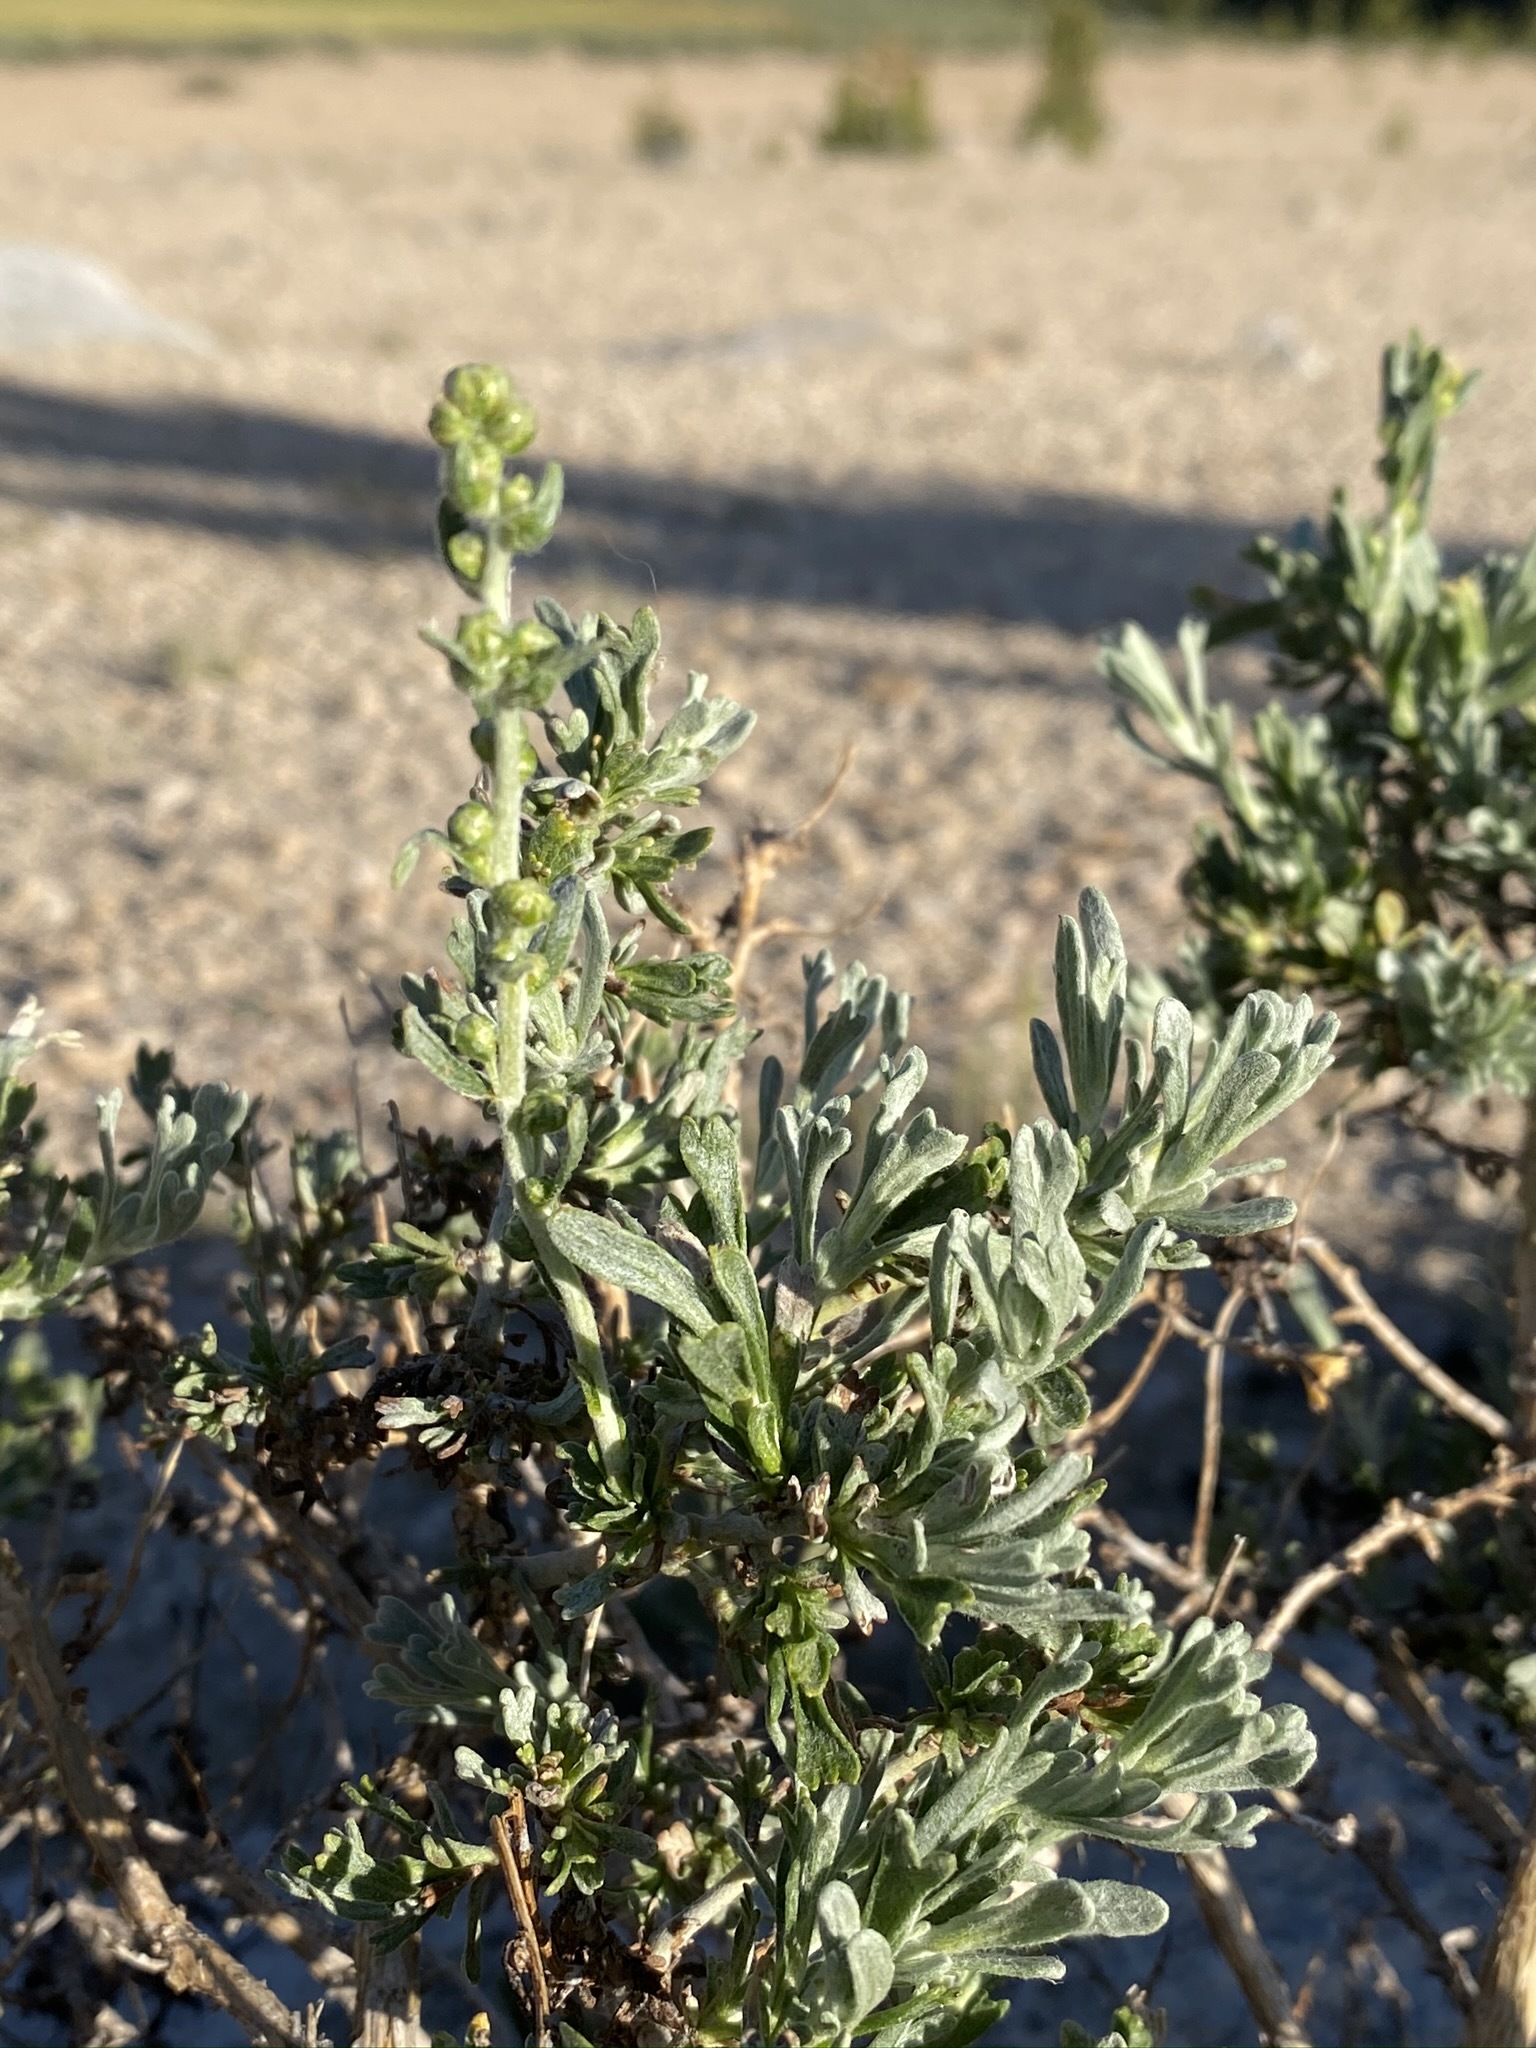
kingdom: Plantae
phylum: Tracheophyta
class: Magnoliopsida
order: Asterales
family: Asteraceae
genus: Artemisia
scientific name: Artemisia rothrockii
